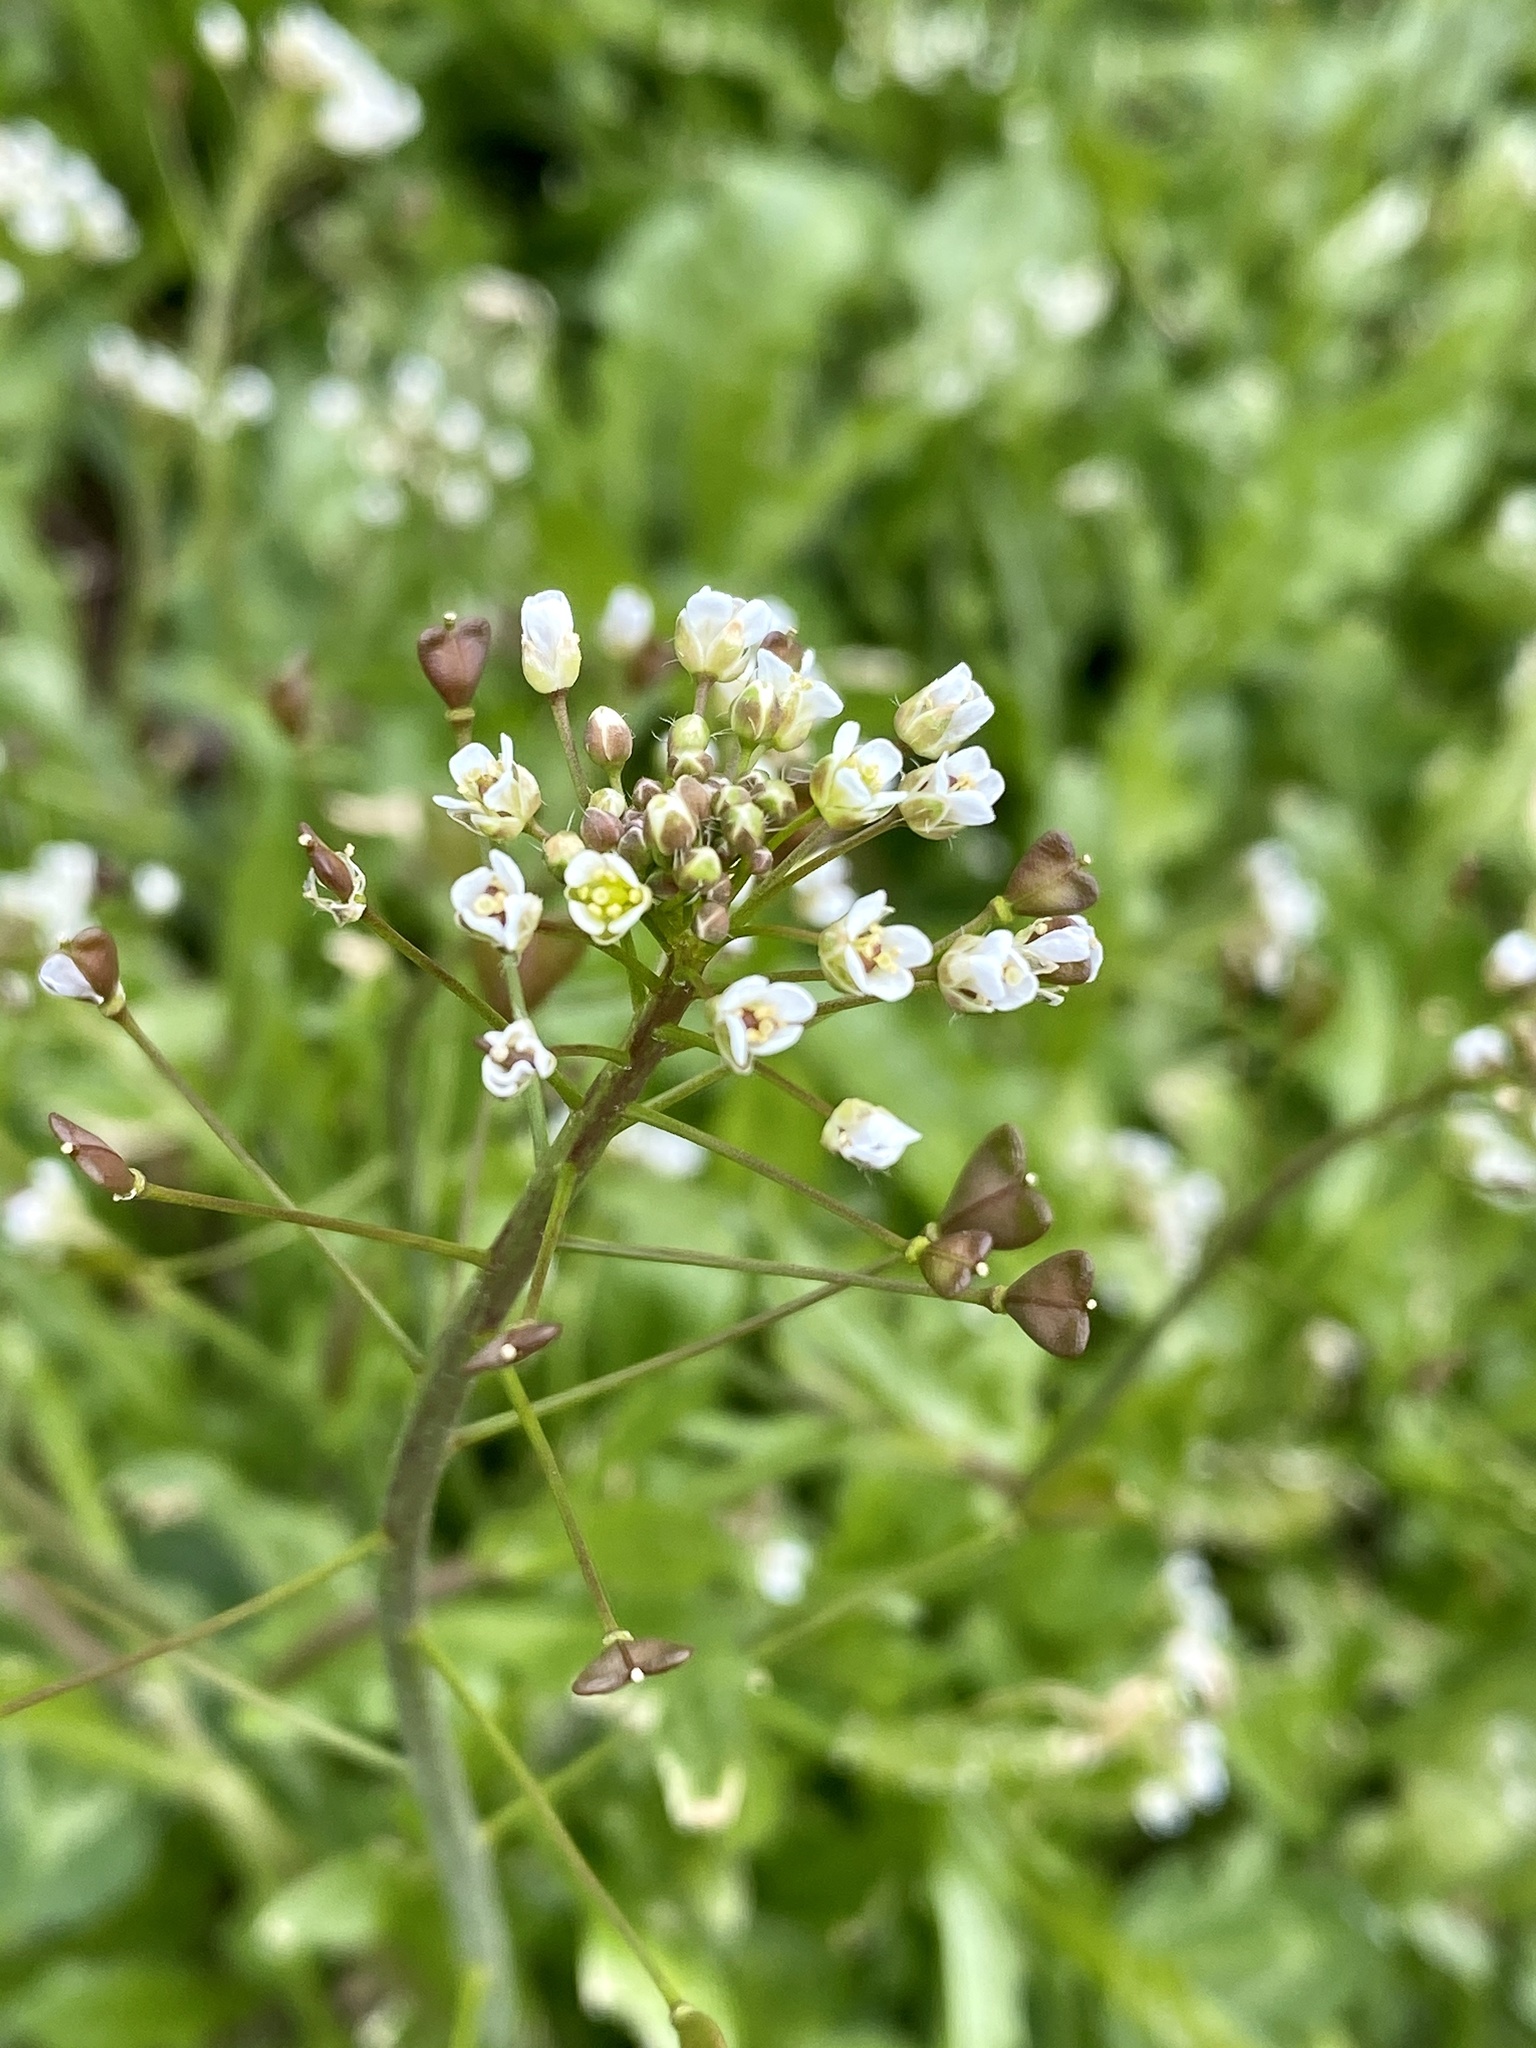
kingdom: Plantae
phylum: Tracheophyta
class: Magnoliopsida
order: Brassicales
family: Brassicaceae
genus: Capsella
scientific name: Capsella bursa-pastoris
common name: Shepherd's purse
